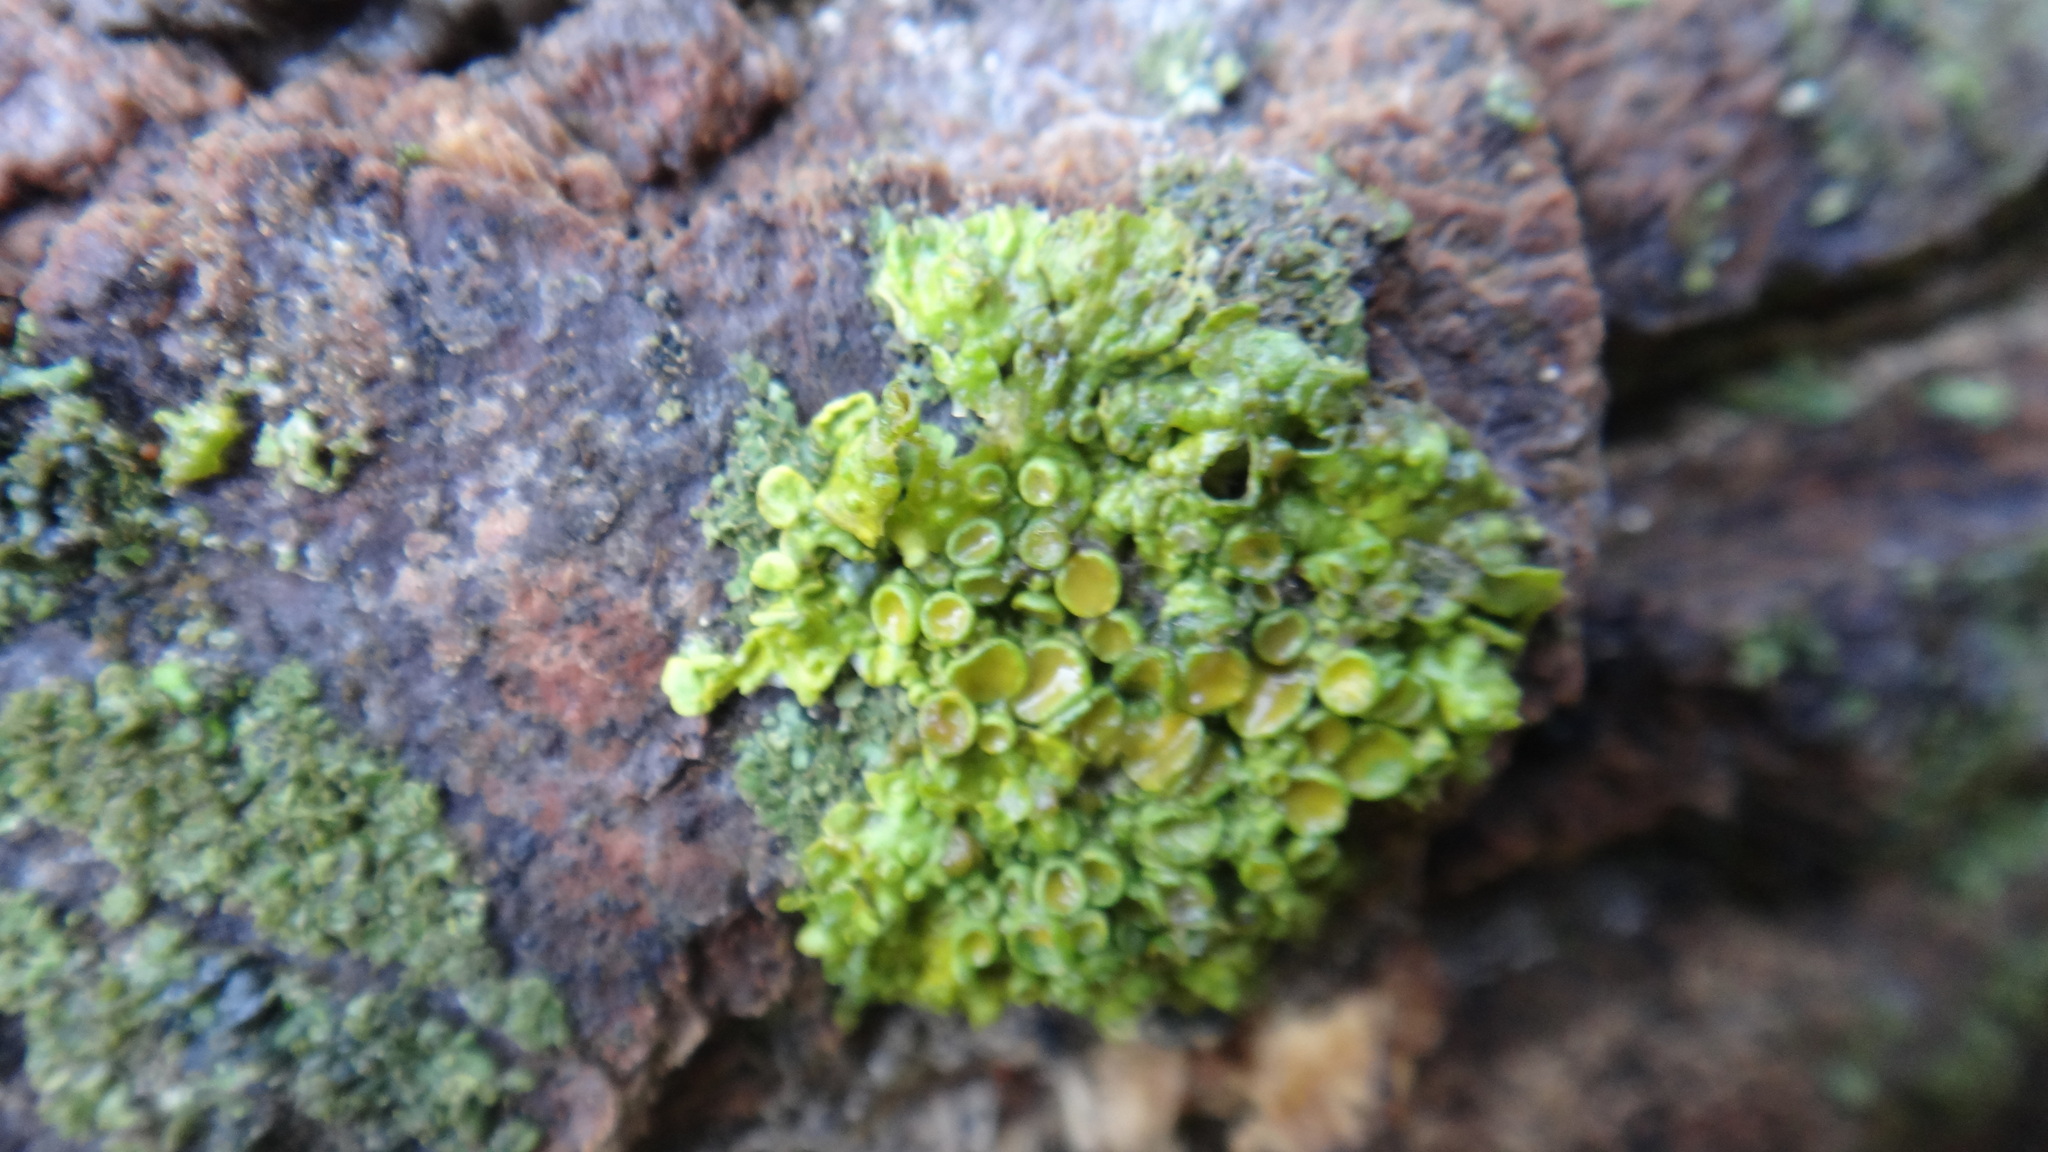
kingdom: Fungi
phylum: Ascomycota
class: Lecanoromycetes
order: Teloschistales
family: Teloschistaceae
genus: Xanthoria
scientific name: Xanthoria parietina
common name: Common orange lichen
